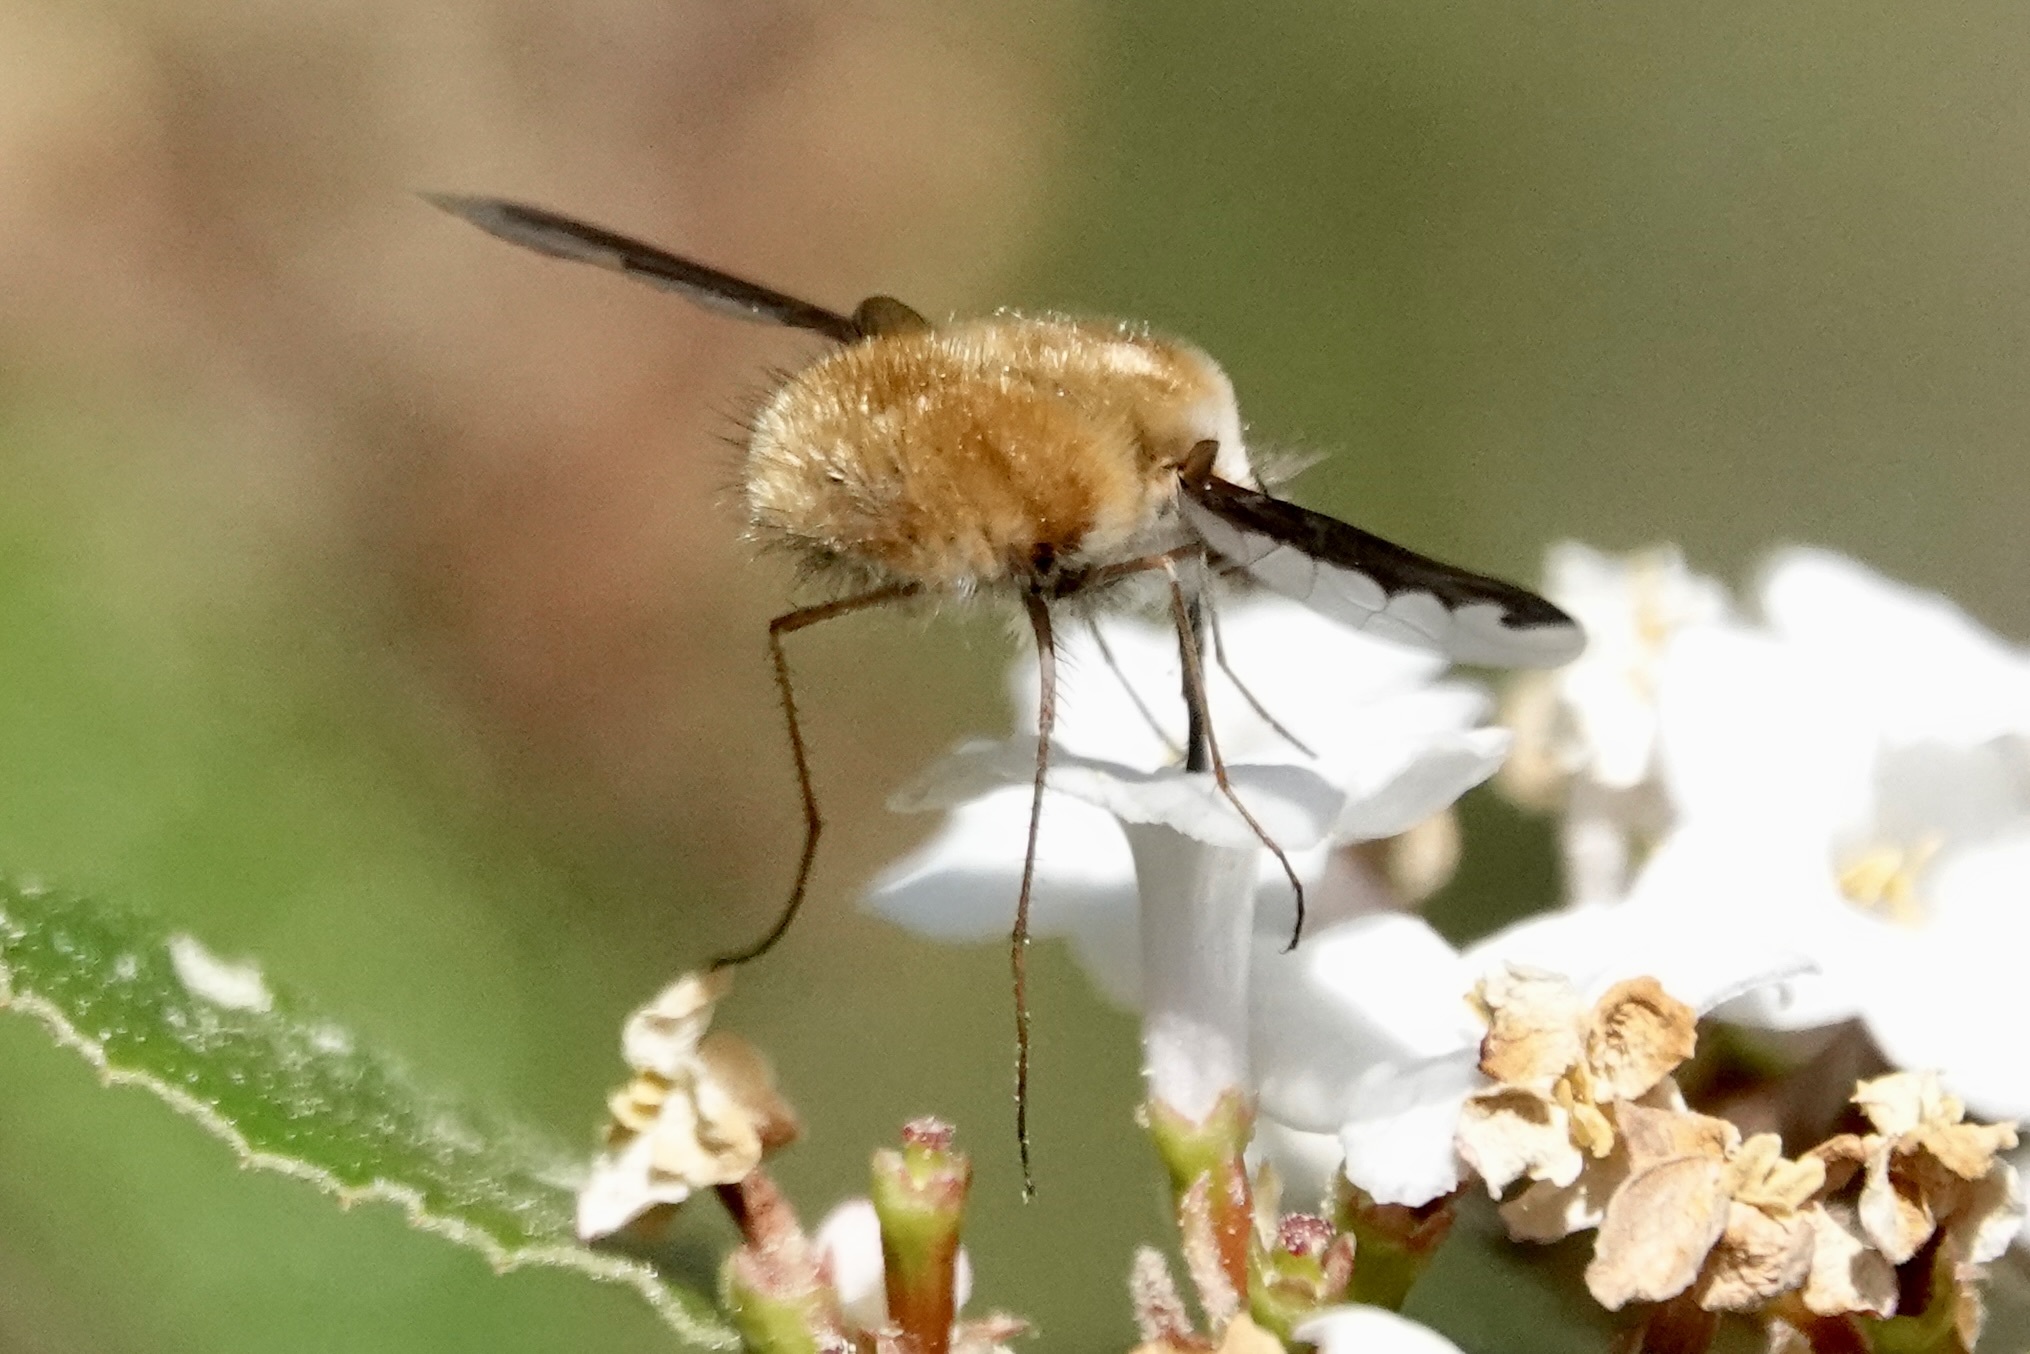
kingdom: Animalia
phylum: Arthropoda
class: Insecta
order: Diptera
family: Bombyliidae
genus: Bombylius
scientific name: Bombylius major
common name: Bee fly
